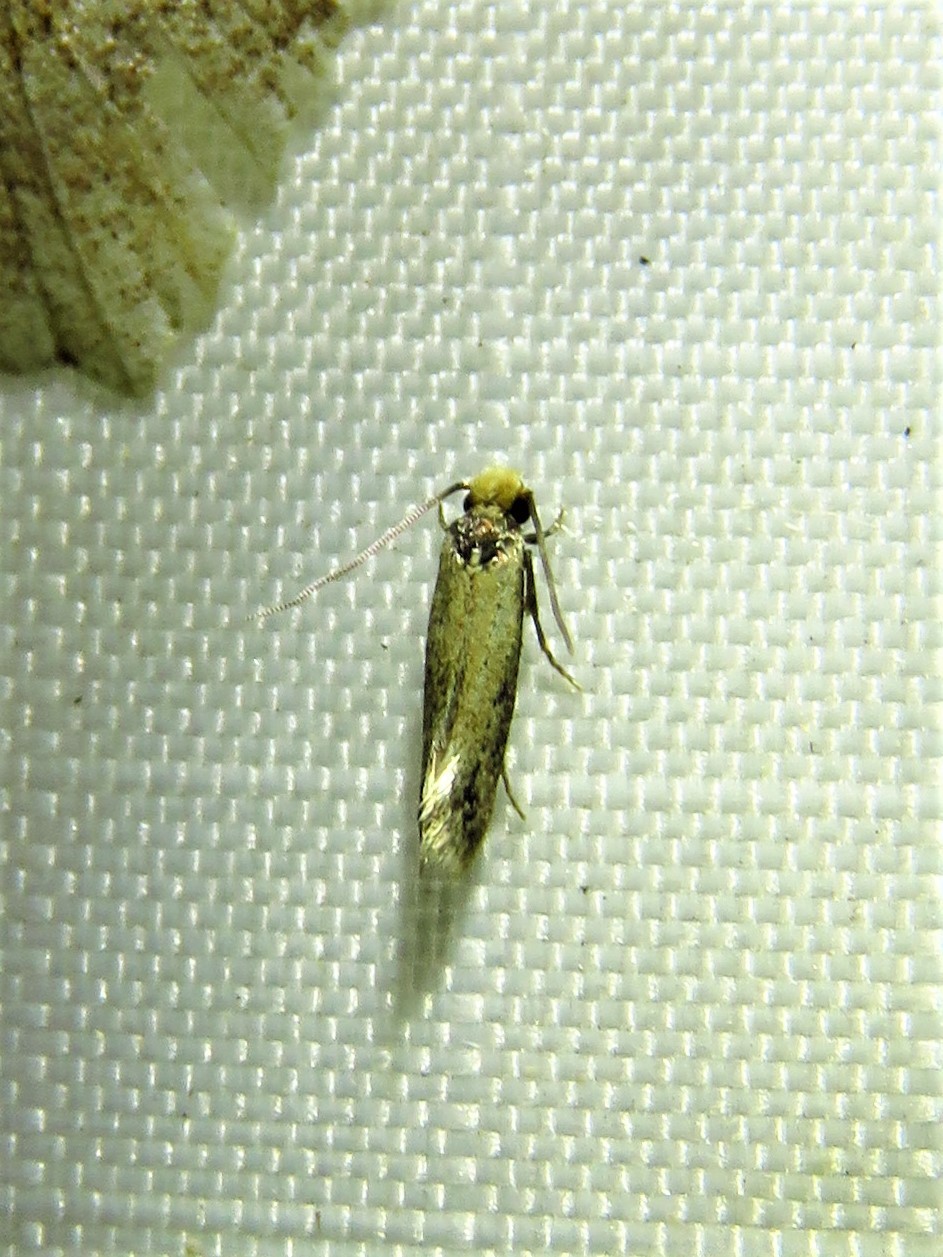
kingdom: Animalia
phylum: Arthropoda
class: Insecta
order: Lepidoptera
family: Meessiidae
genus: Homostinea
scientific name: Homostinea curviliniella
